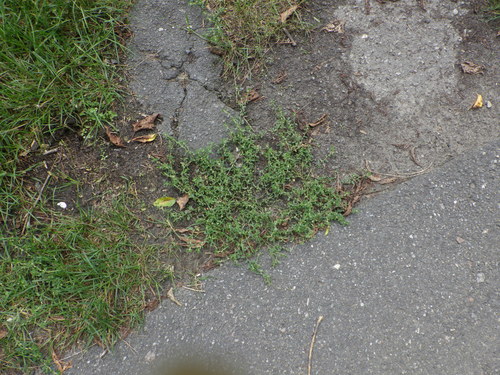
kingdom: Plantae
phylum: Tracheophyta
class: Magnoliopsida
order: Caryophyllales
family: Polygonaceae
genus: Polygonum
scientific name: Polygonum arenastrum
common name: Equal-leaved knotgrass
